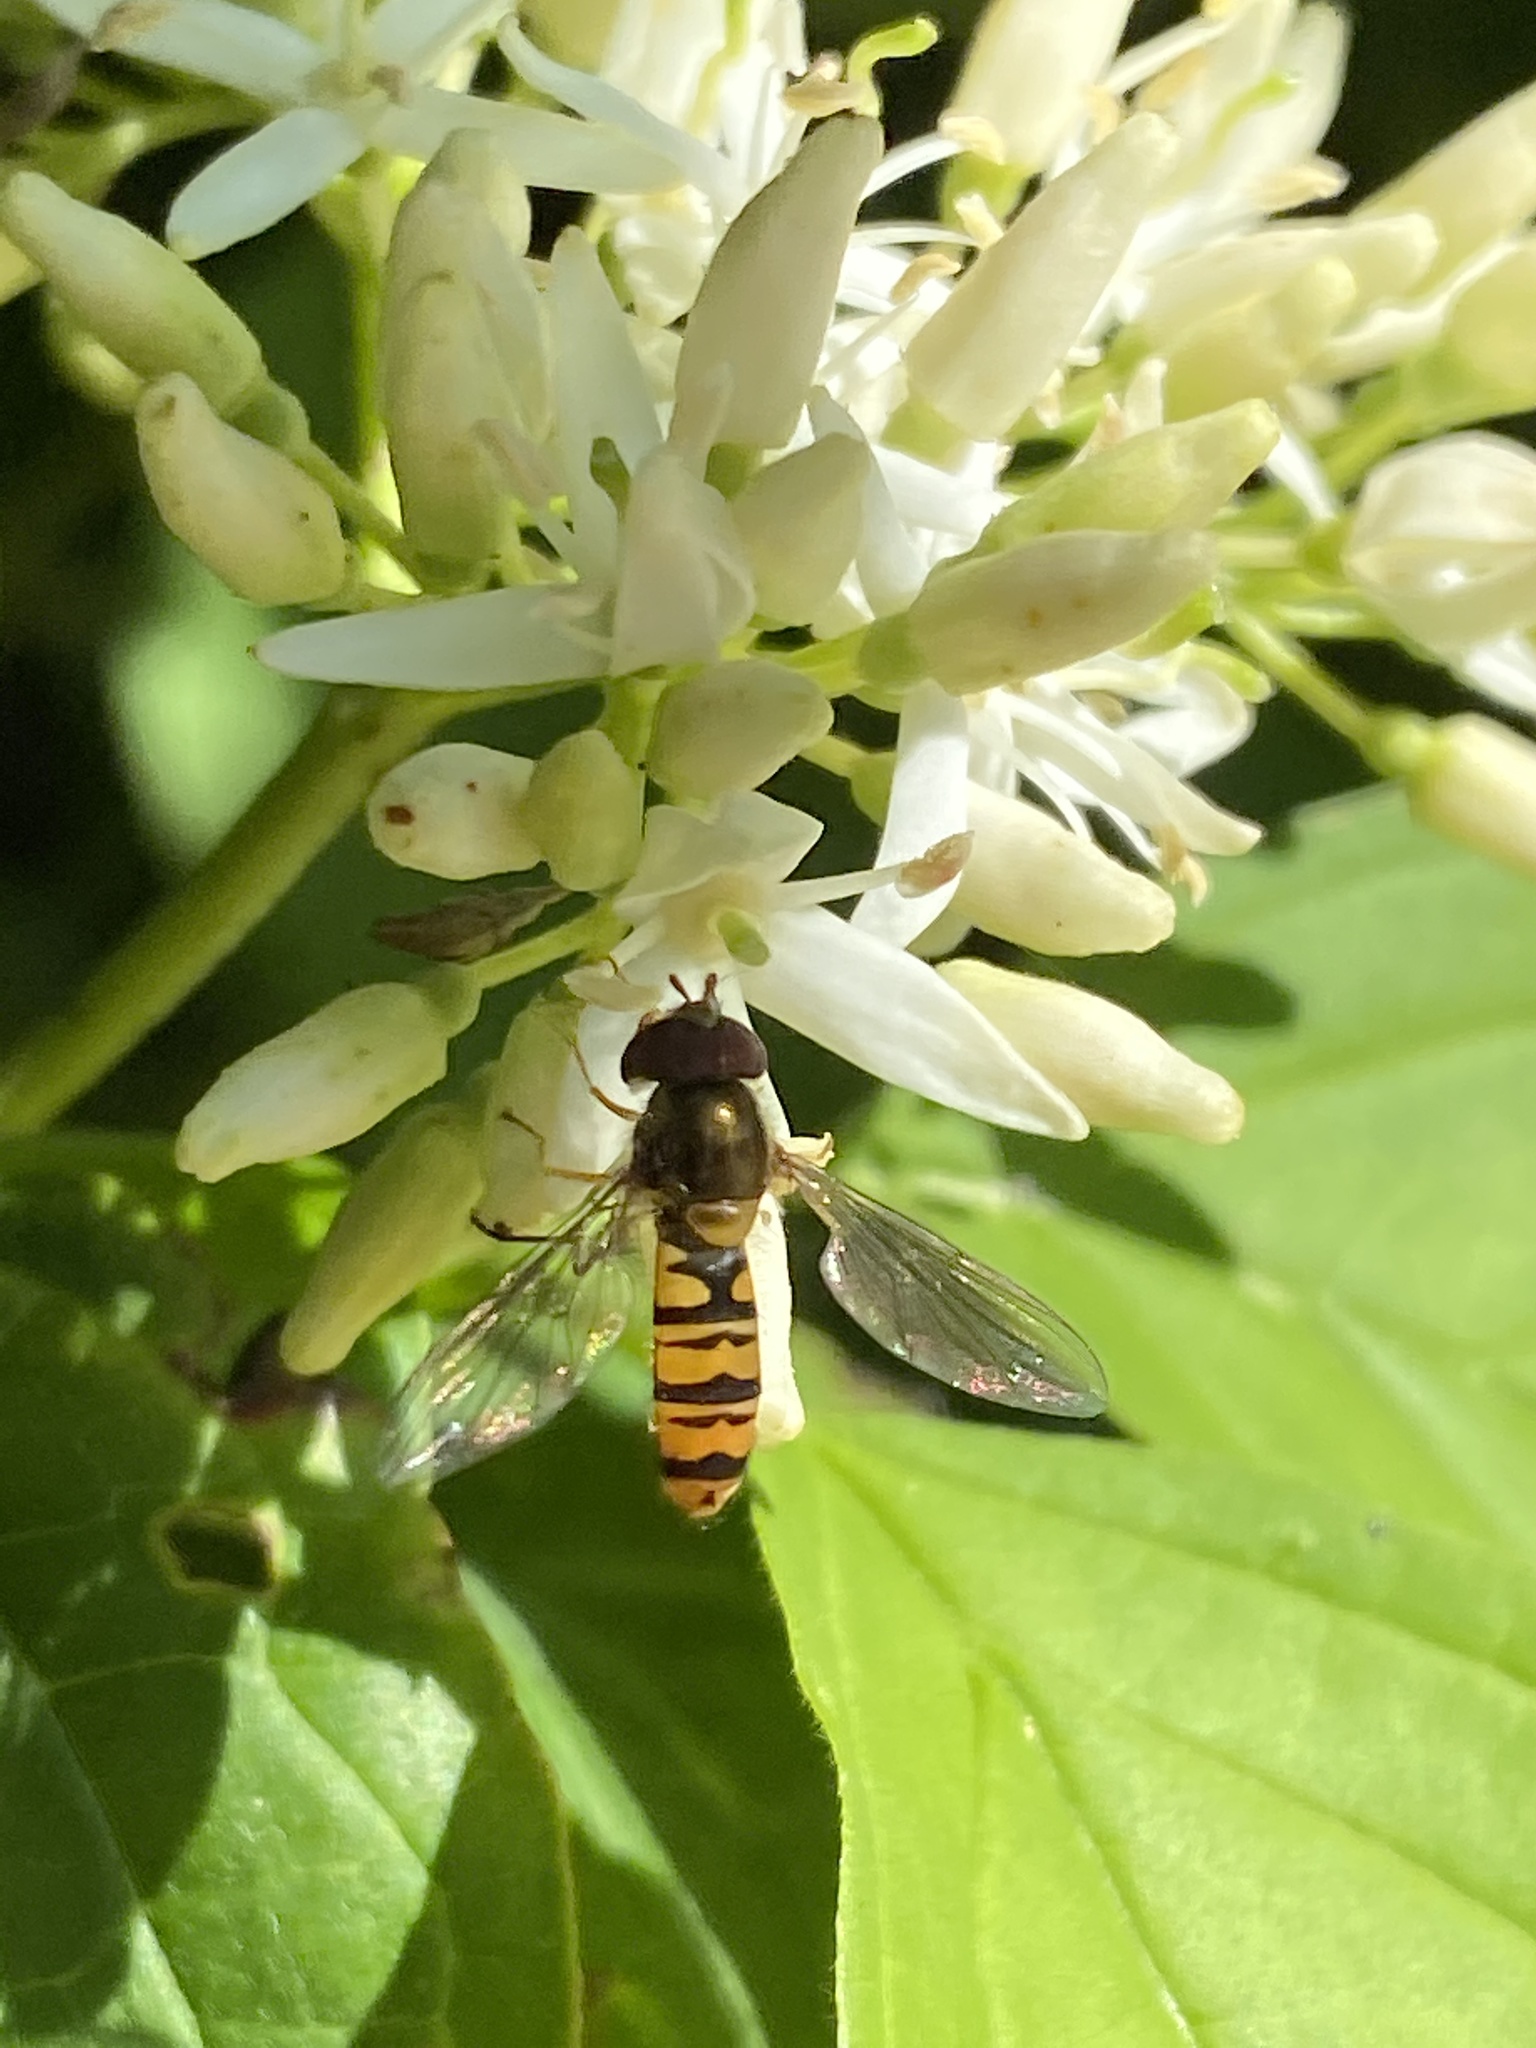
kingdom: Animalia
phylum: Arthropoda
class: Insecta
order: Diptera
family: Syrphidae
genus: Episyrphus
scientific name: Episyrphus balteatus
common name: Marmalade hoverfly
